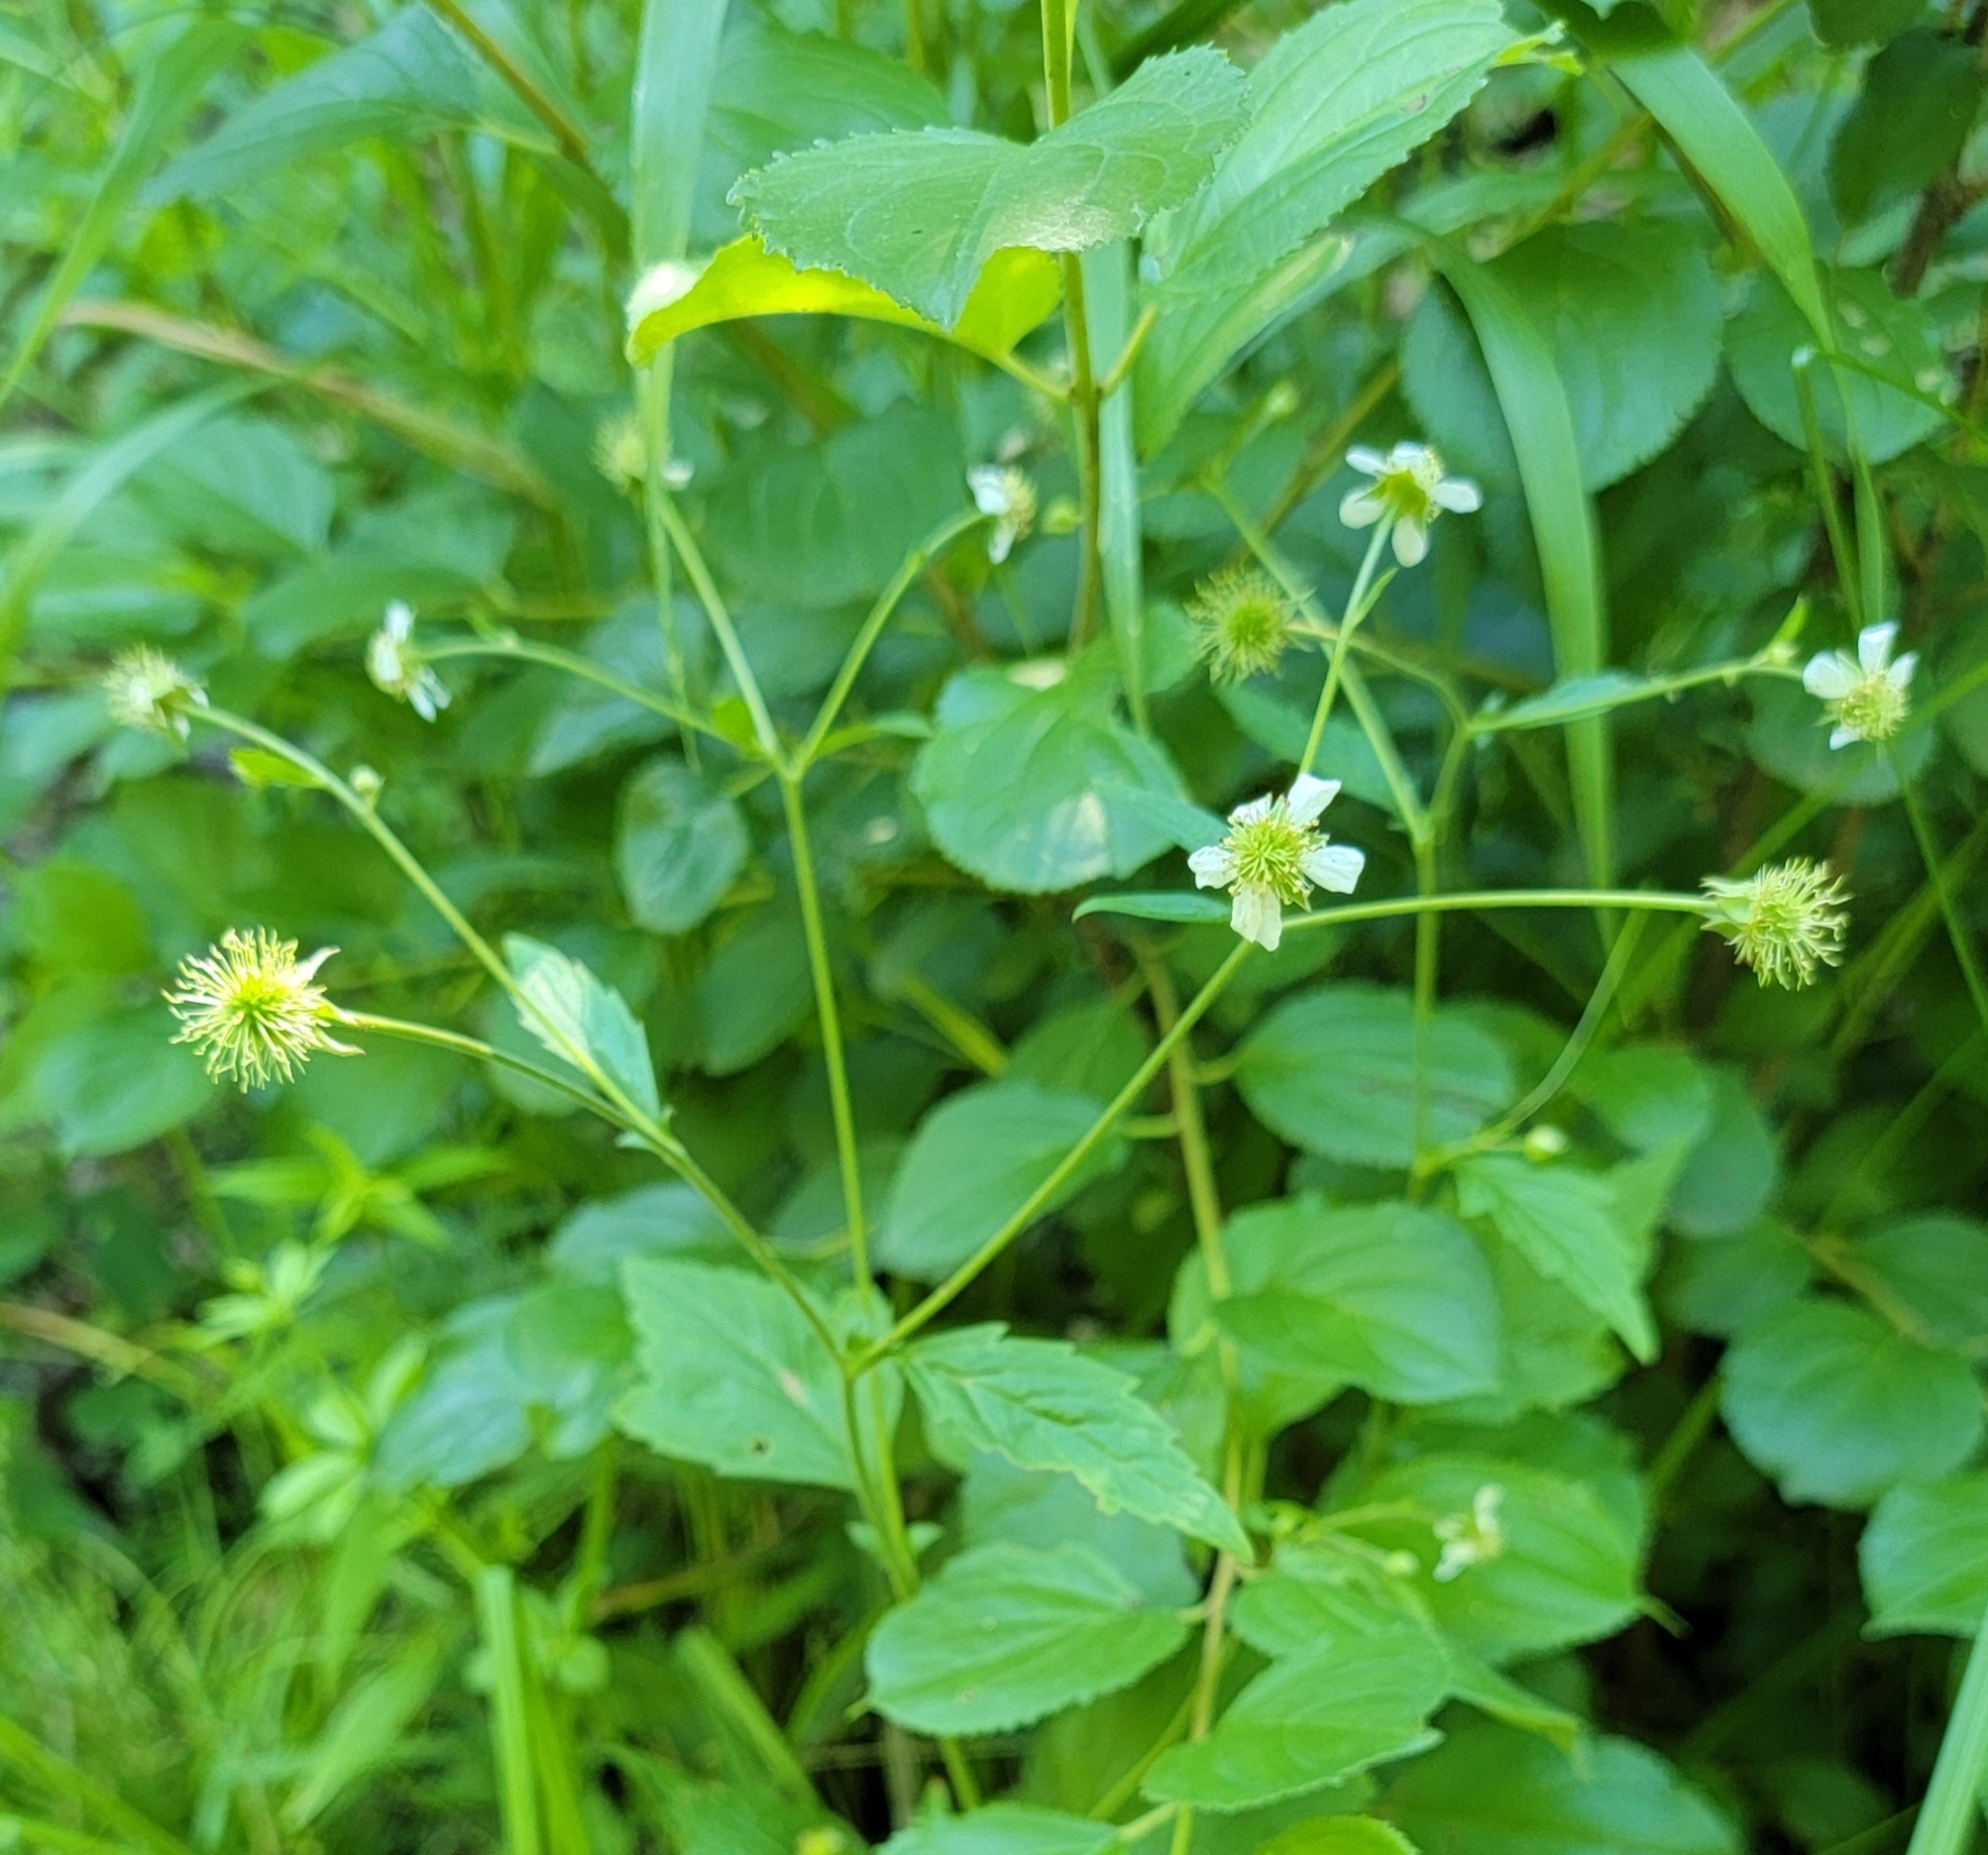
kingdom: Plantae
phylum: Tracheophyta
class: Magnoliopsida
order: Rosales
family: Rosaceae
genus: Geum
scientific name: Geum canadense
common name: White avens
